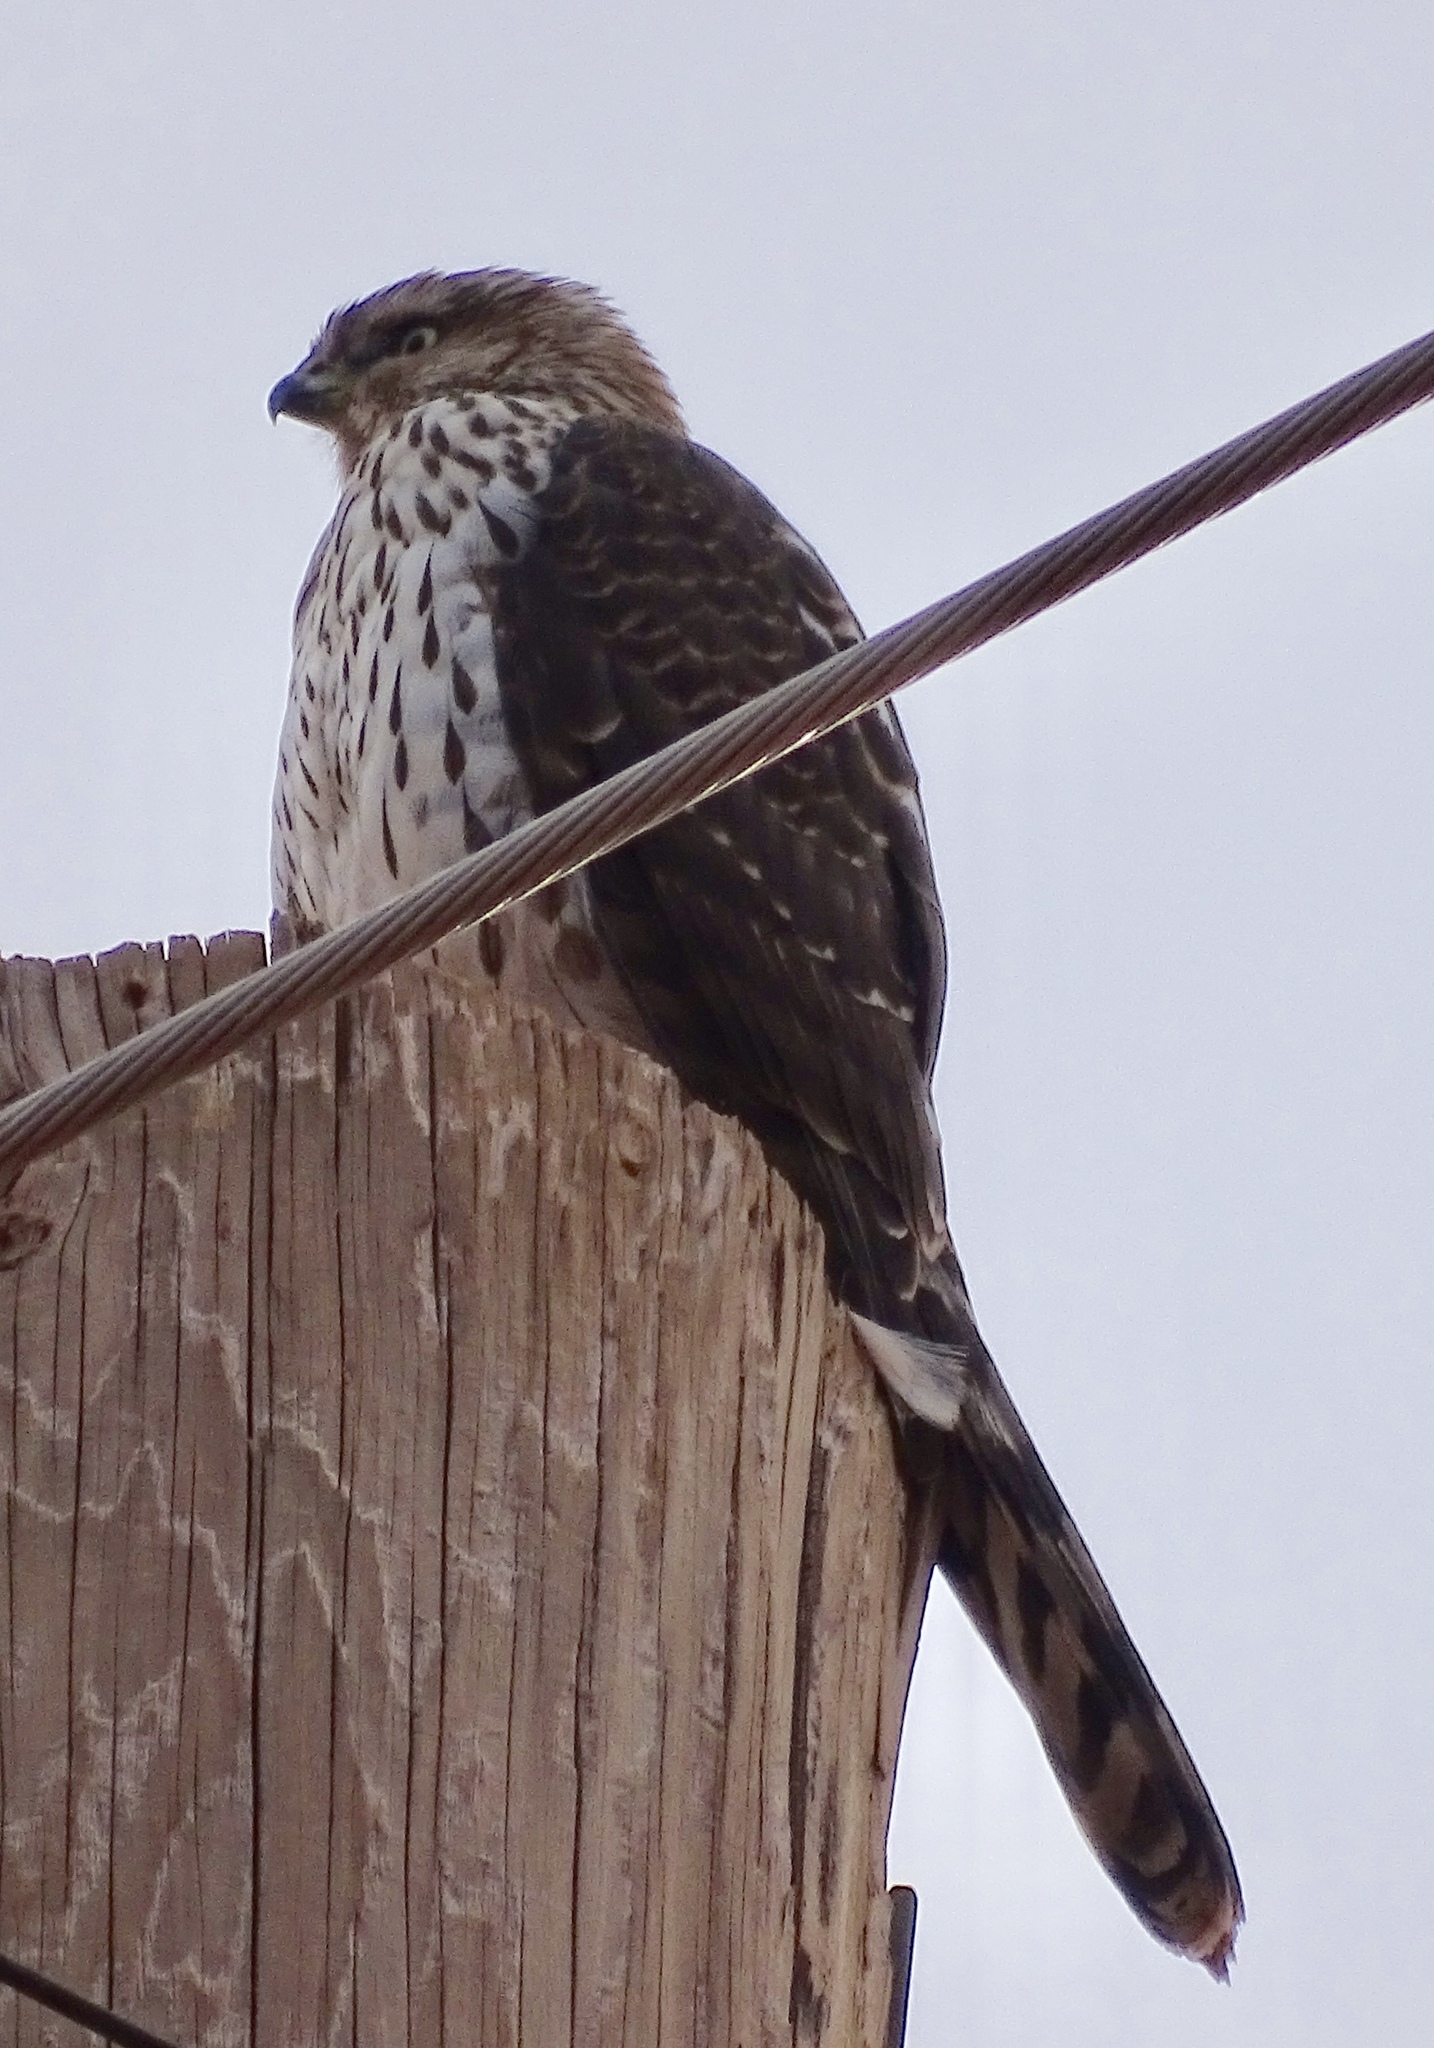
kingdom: Animalia
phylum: Chordata
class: Aves
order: Accipitriformes
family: Accipitridae
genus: Accipiter
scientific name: Accipiter cooperii
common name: Cooper's hawk
